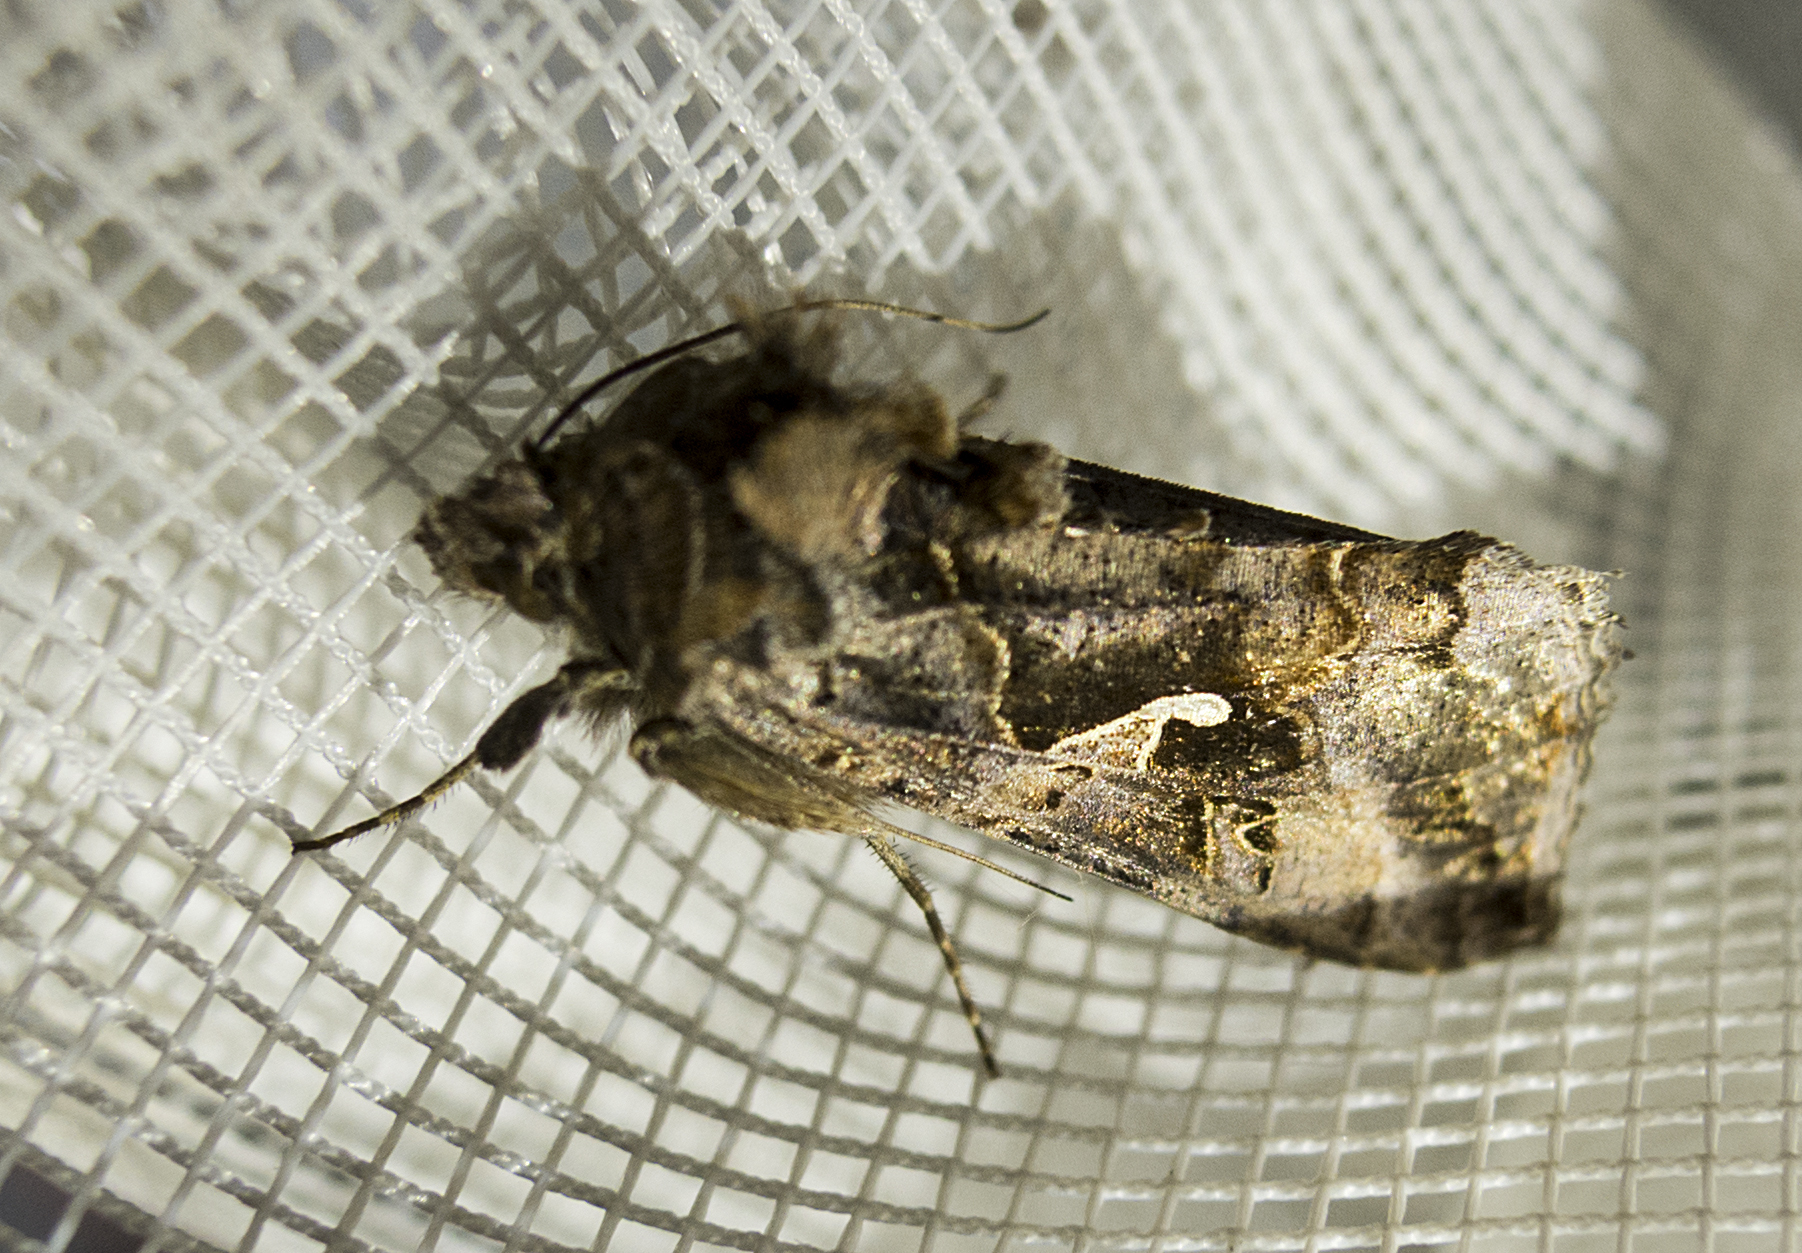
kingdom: Animalia
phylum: Arthropoda
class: Insecta
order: Lepidoptera
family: Noctuidae
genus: Autographa
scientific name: Autographa gamma
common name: Silver y
